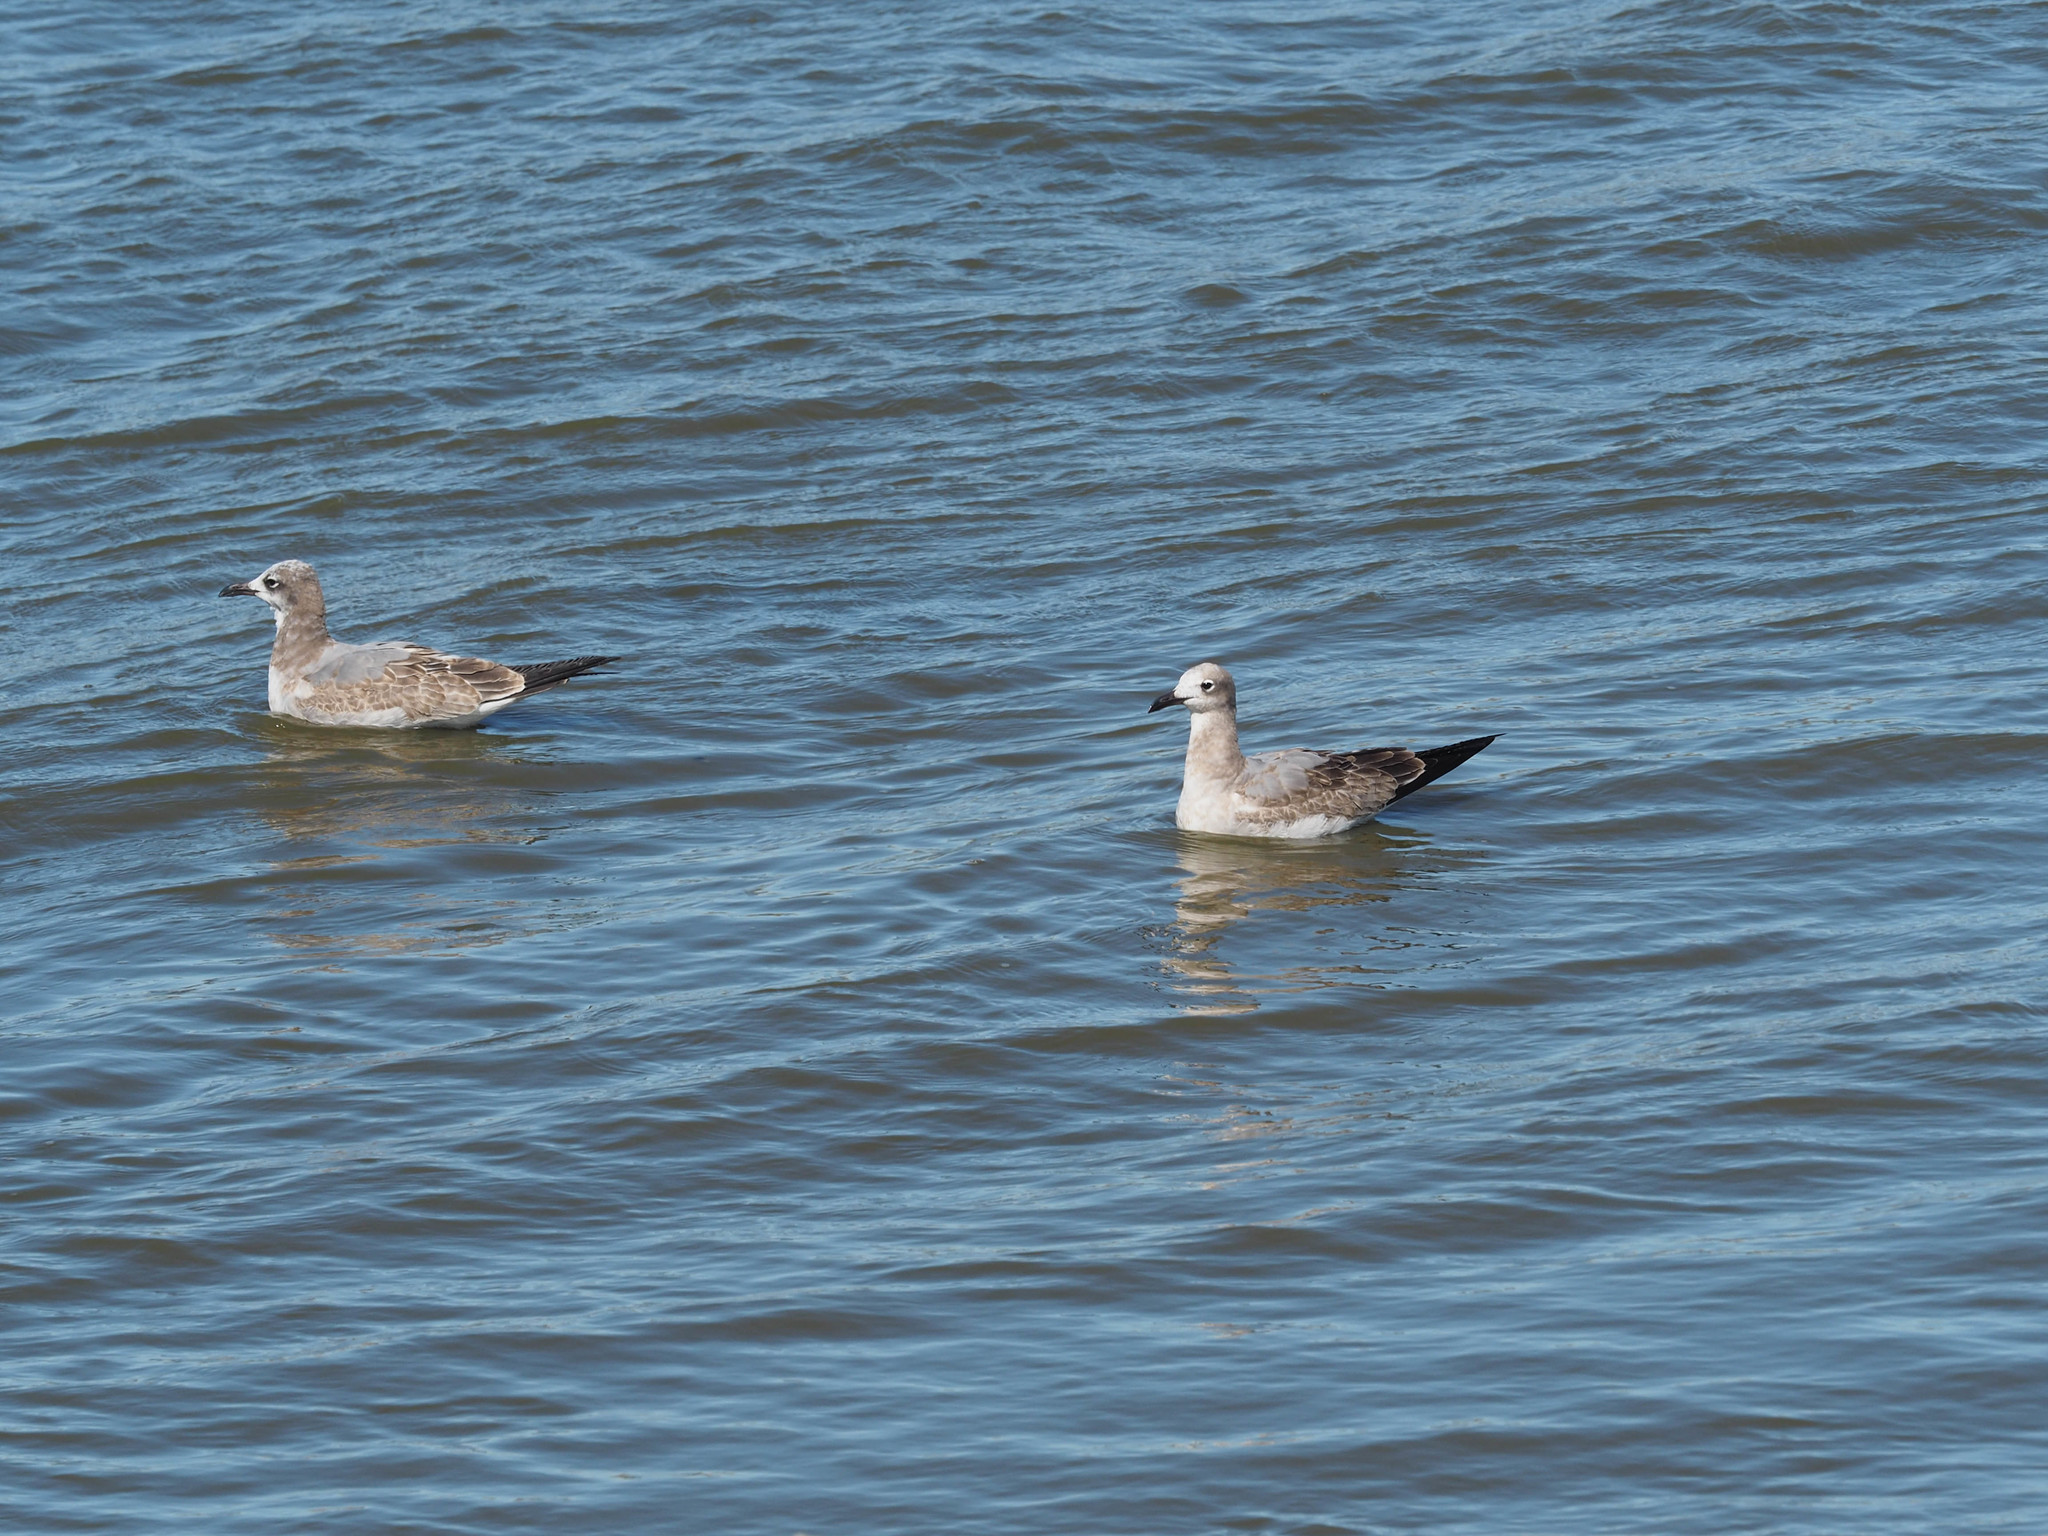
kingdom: Animalia
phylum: Chordata
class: Aves
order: Charadriiformes
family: Laridae
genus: Leucophaeus
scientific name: Leucophaeus atricilla
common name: Laughing gull
